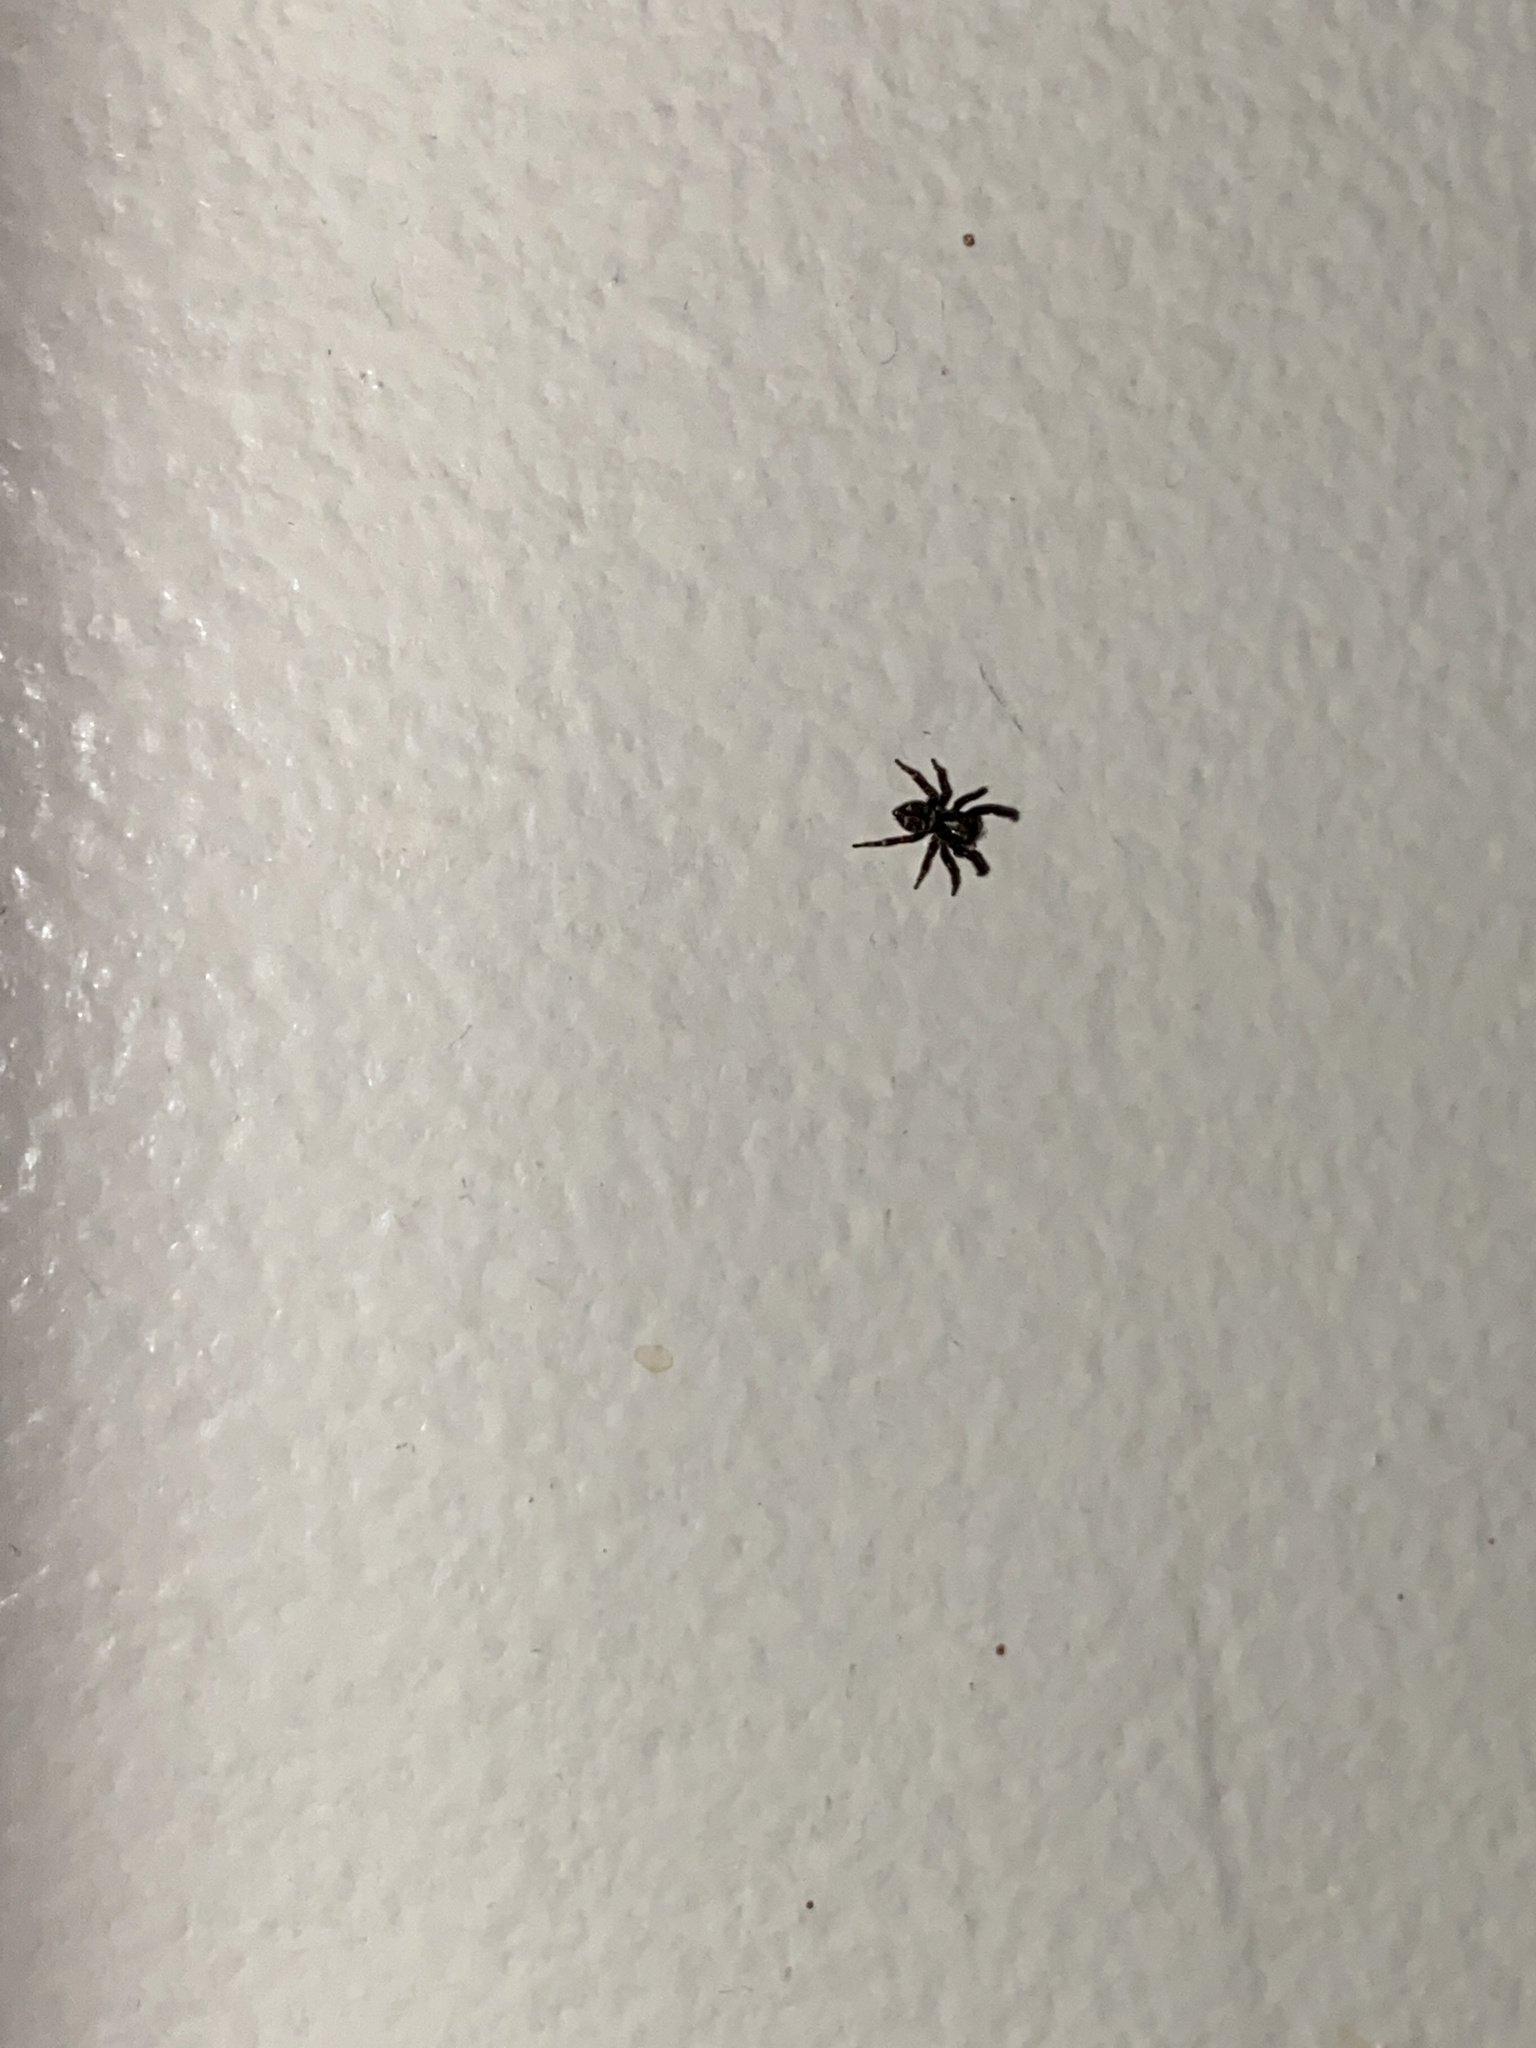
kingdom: Animalia
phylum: Arthropoda
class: Arachnida
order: Araneae
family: Salticidae
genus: Pseudeuophrys
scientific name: Pseudeuophrys erratica
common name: Jumping spider
